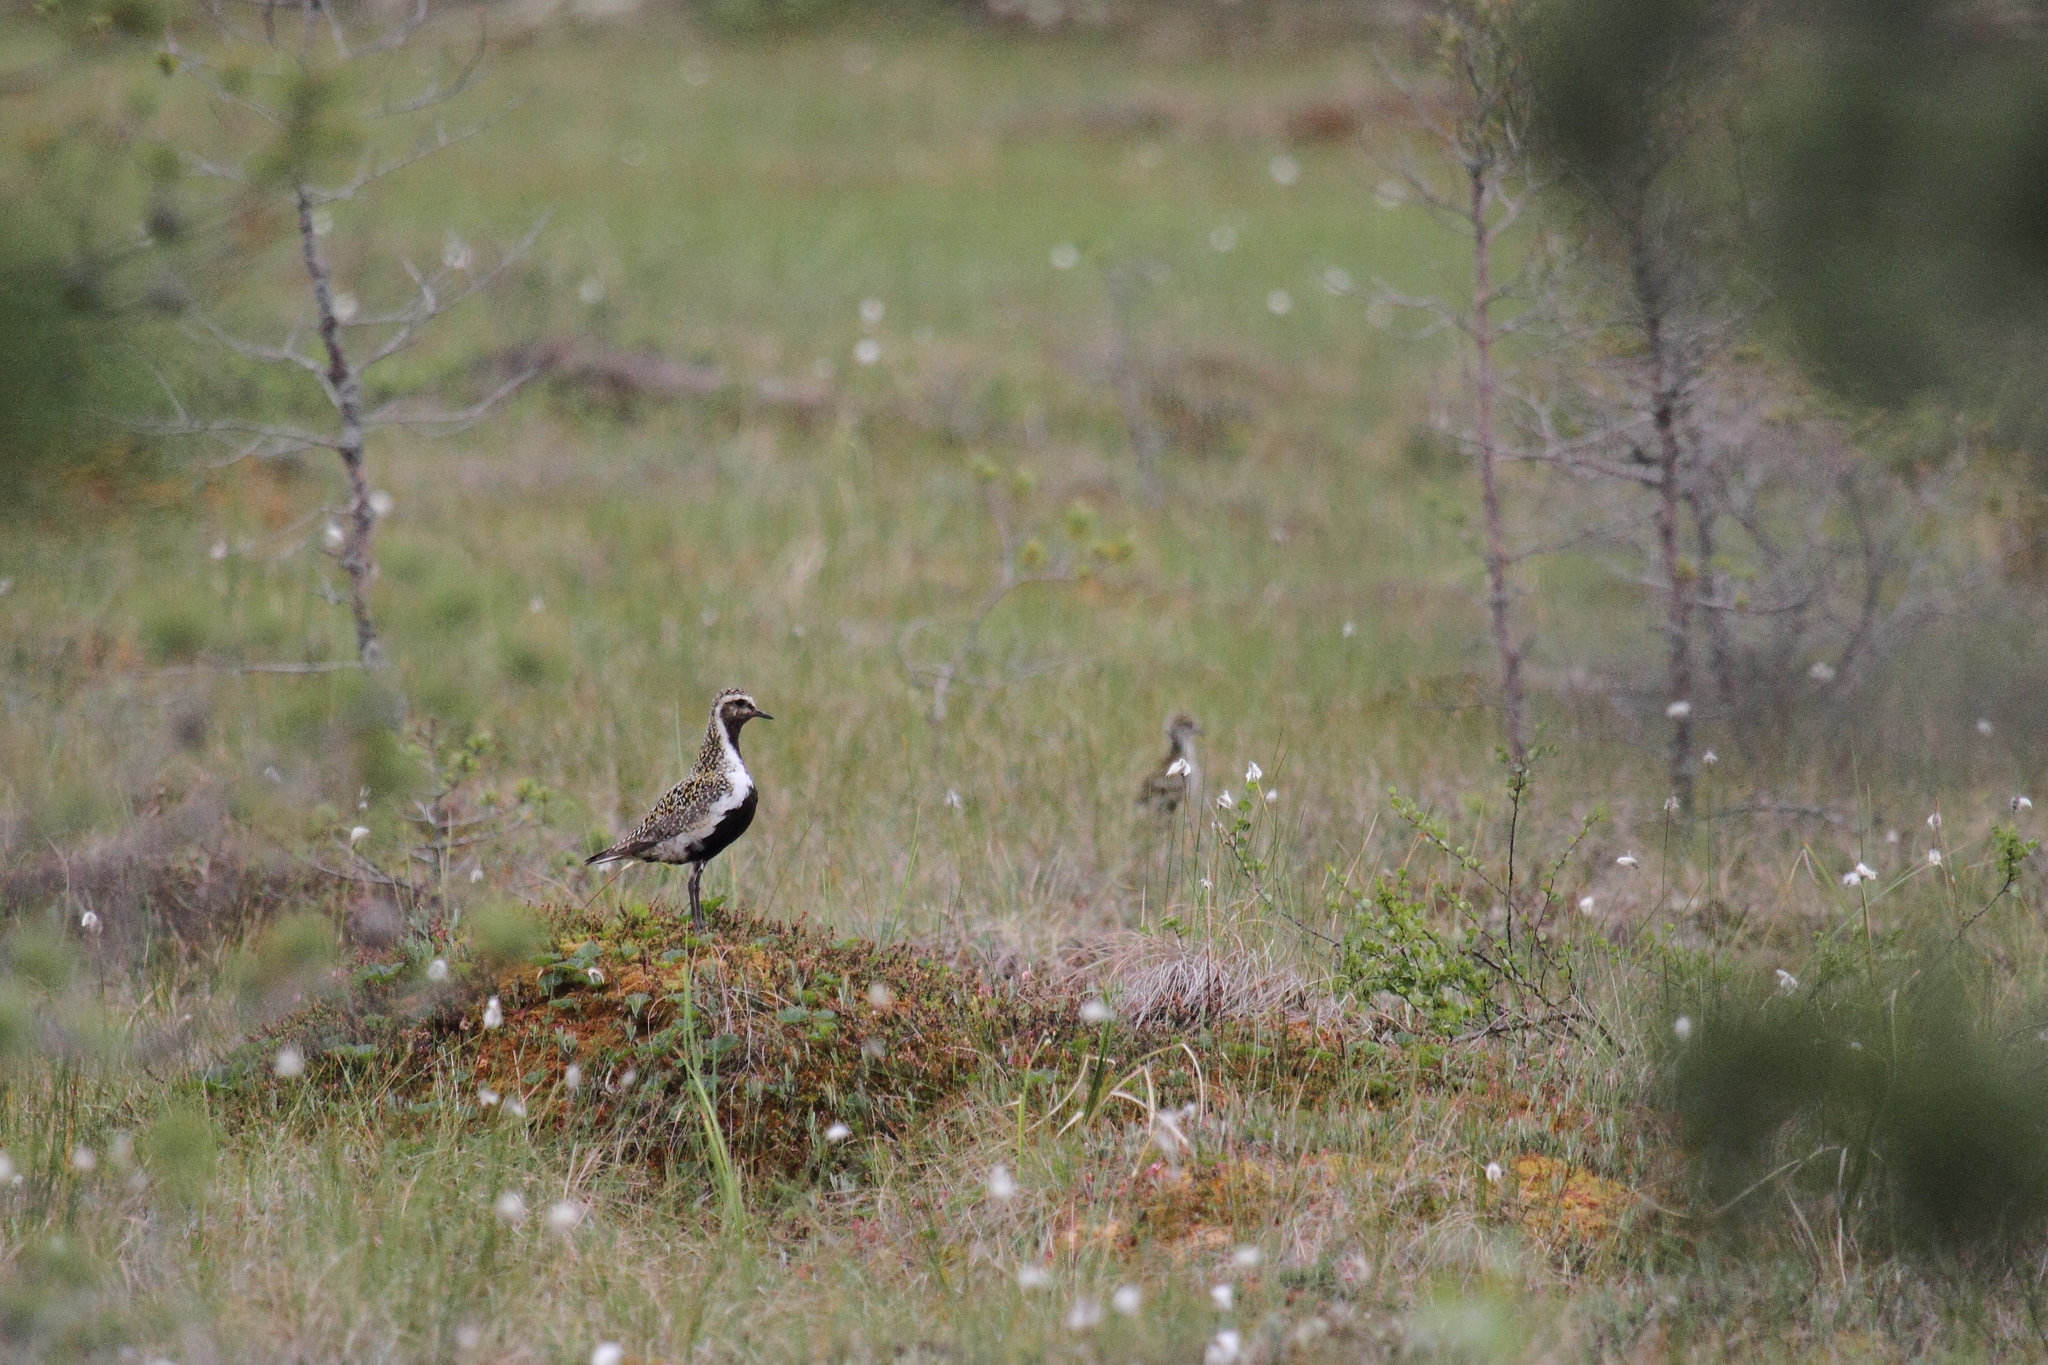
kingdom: Animalia
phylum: Chordata
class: Aves
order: Charadriiformes
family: Charadriidae
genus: Pluvialis
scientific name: Pluvialis apricaria
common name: European golden plover
